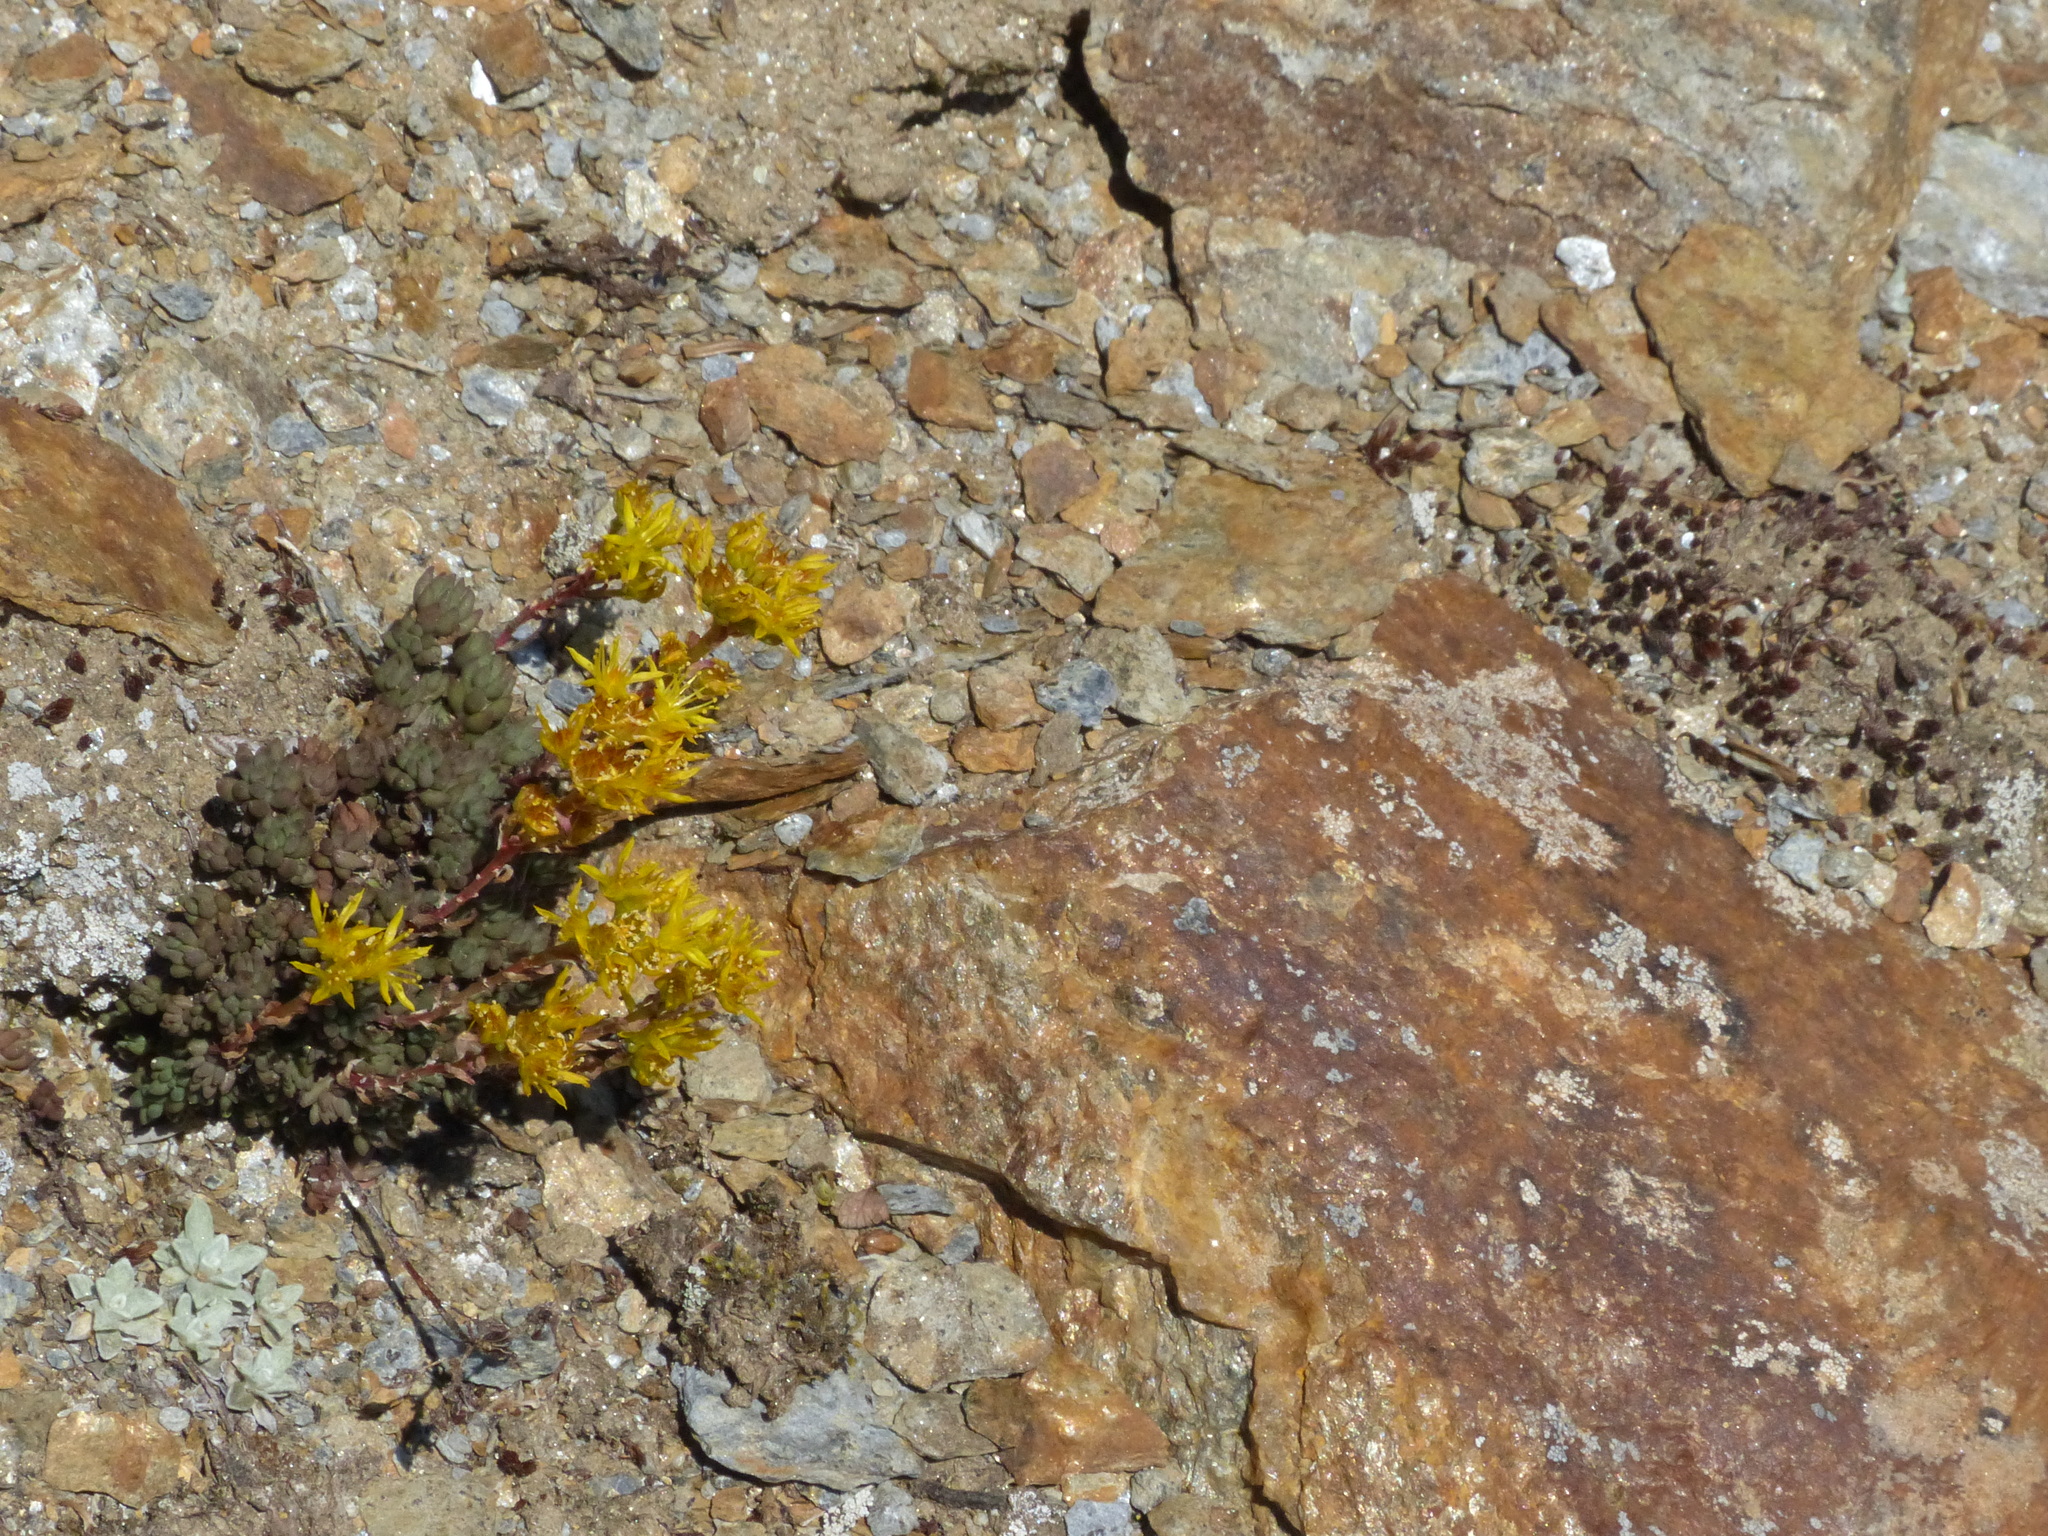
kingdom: Plantae
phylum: Tracheophyta
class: Magnoliopsida
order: Saxifragales
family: Crassulaceae
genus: Sedum
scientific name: Sedum lanceolatum
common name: Common stonecrop
